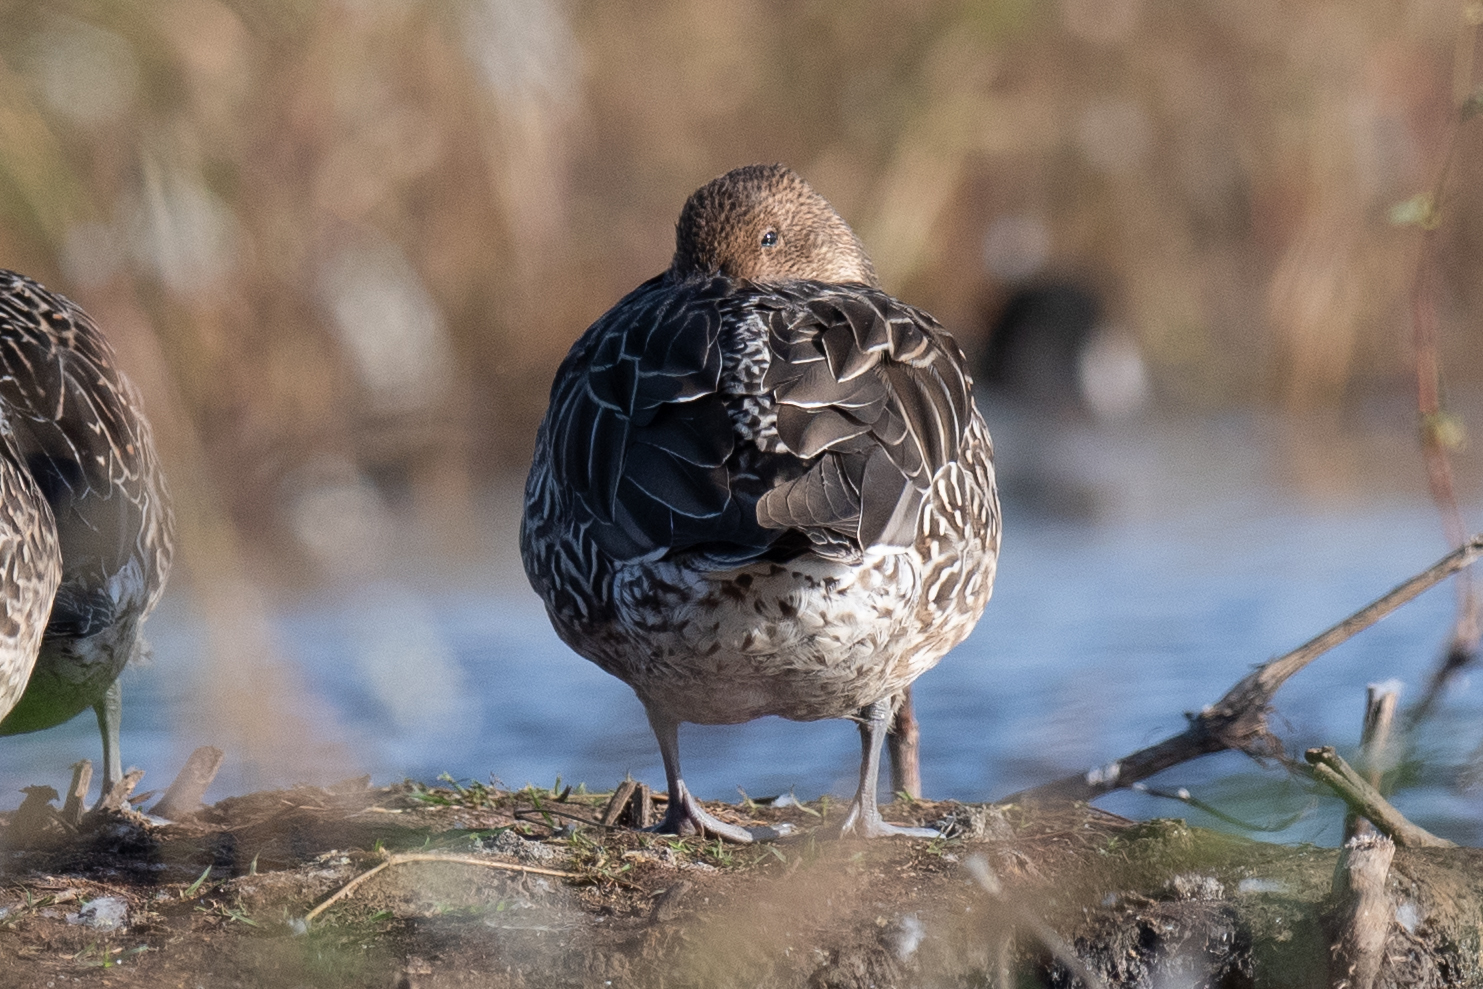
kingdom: Animalia
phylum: Chordata
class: Aves
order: Anseriformes
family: Anatidae
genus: Anas
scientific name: Anas acuta
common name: Northern pintail
